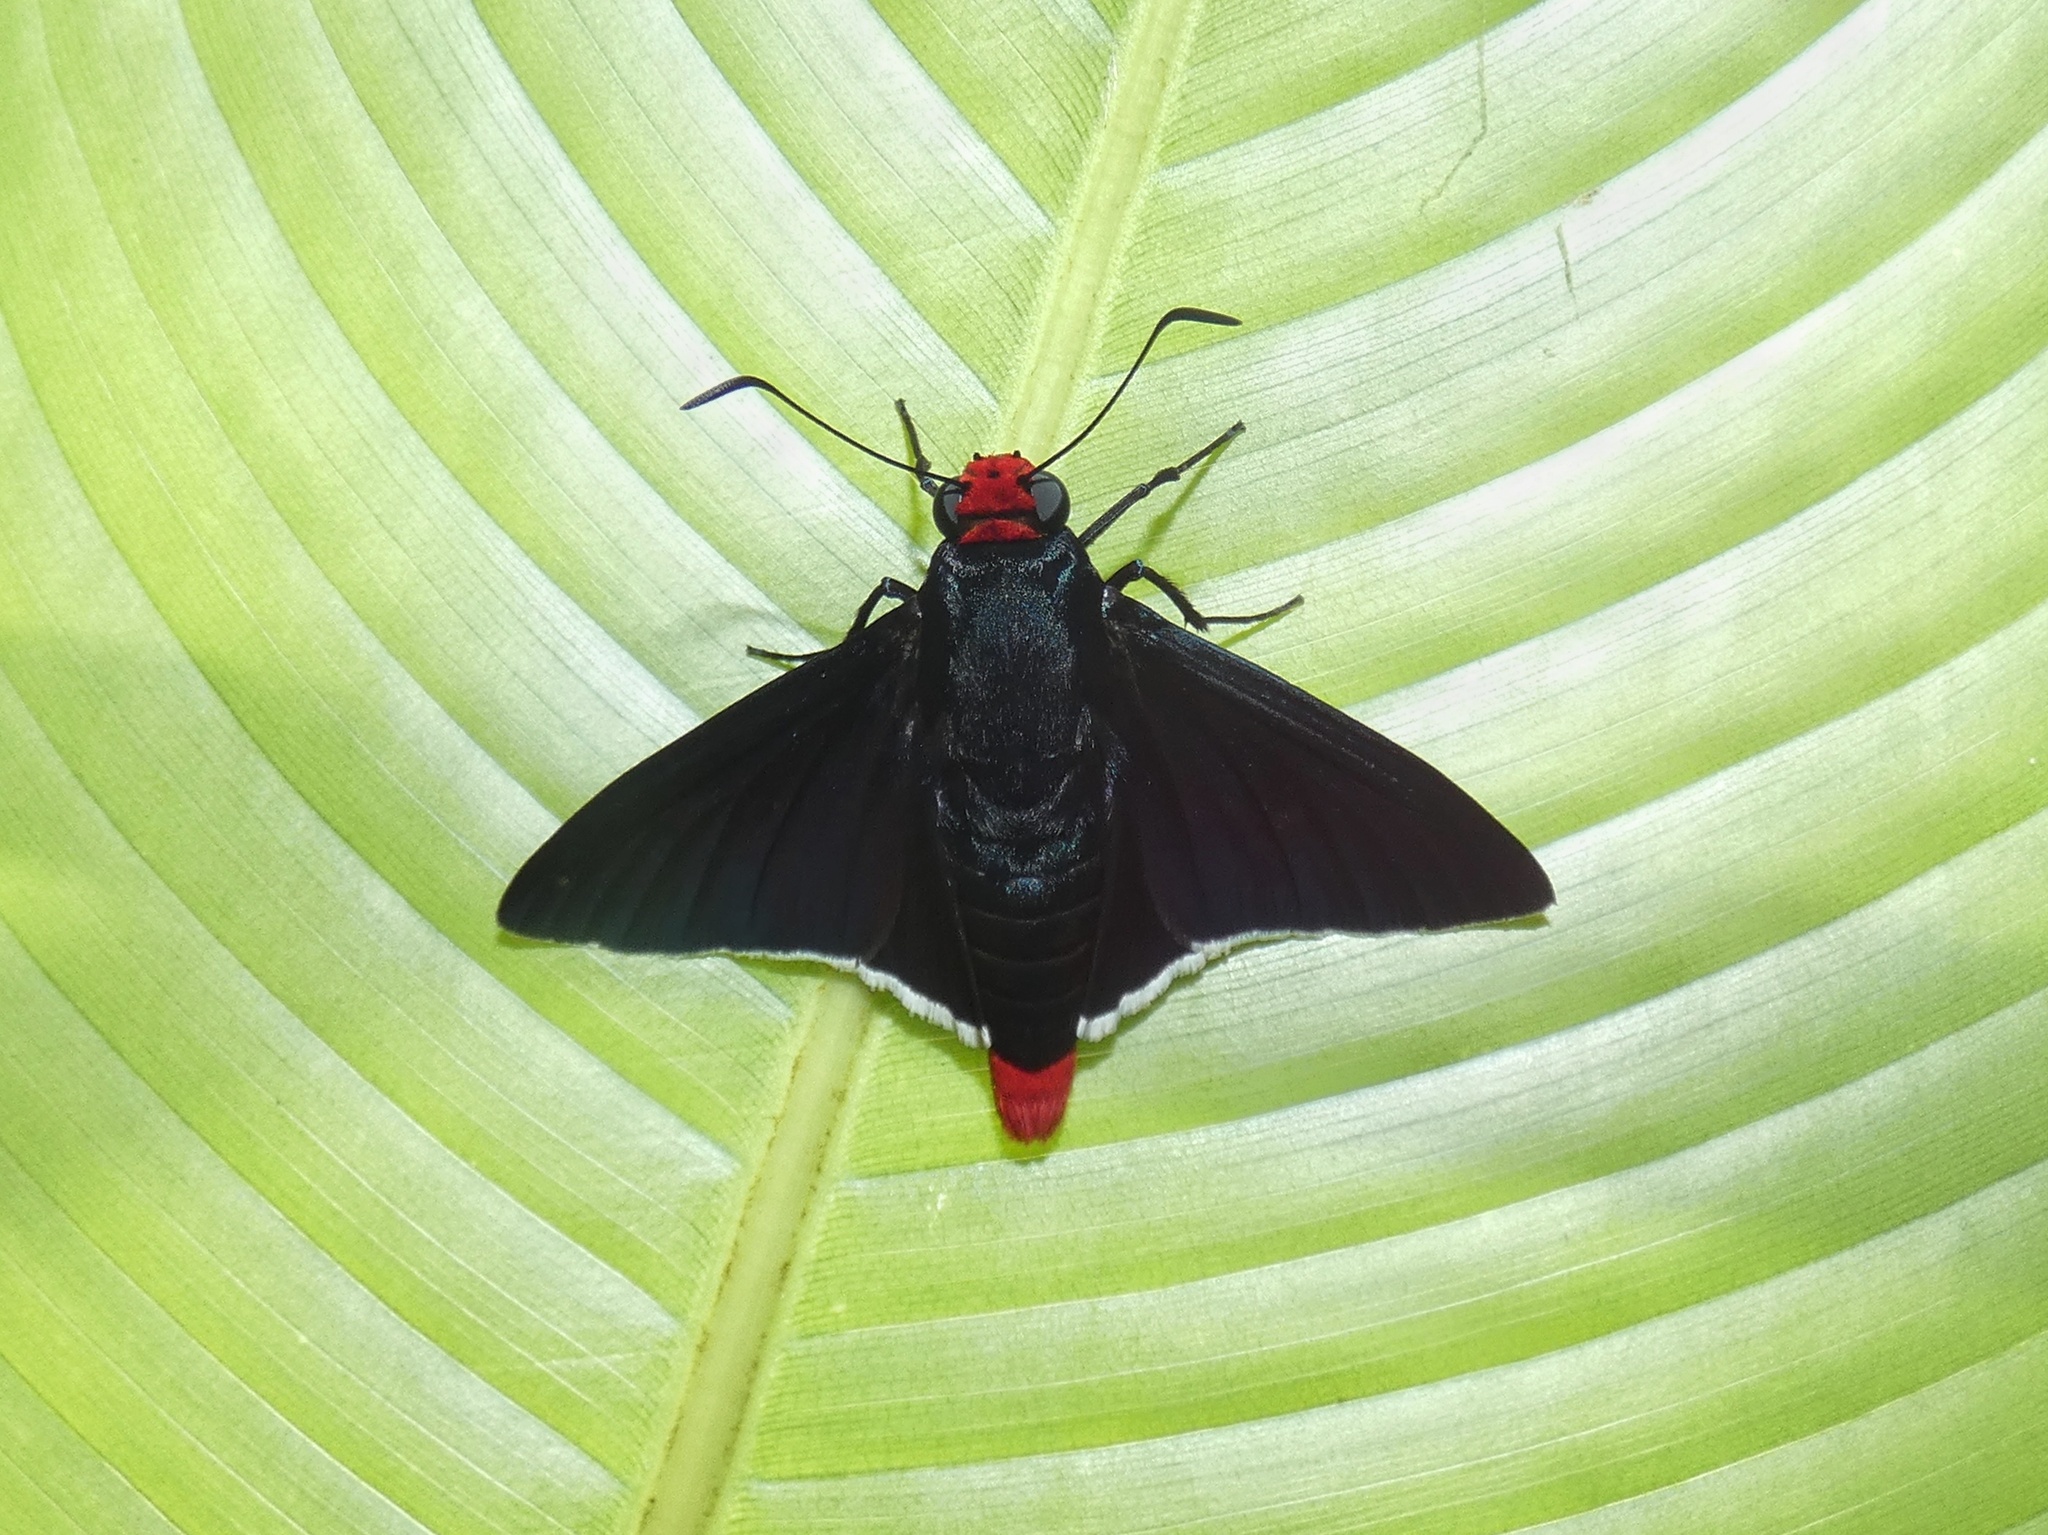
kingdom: Animalia
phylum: Arthropoda
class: Insecta
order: Lepidoptera
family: Hesperiidae
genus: Mysoria
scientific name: Mysoria barcastus
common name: Royal firetip
